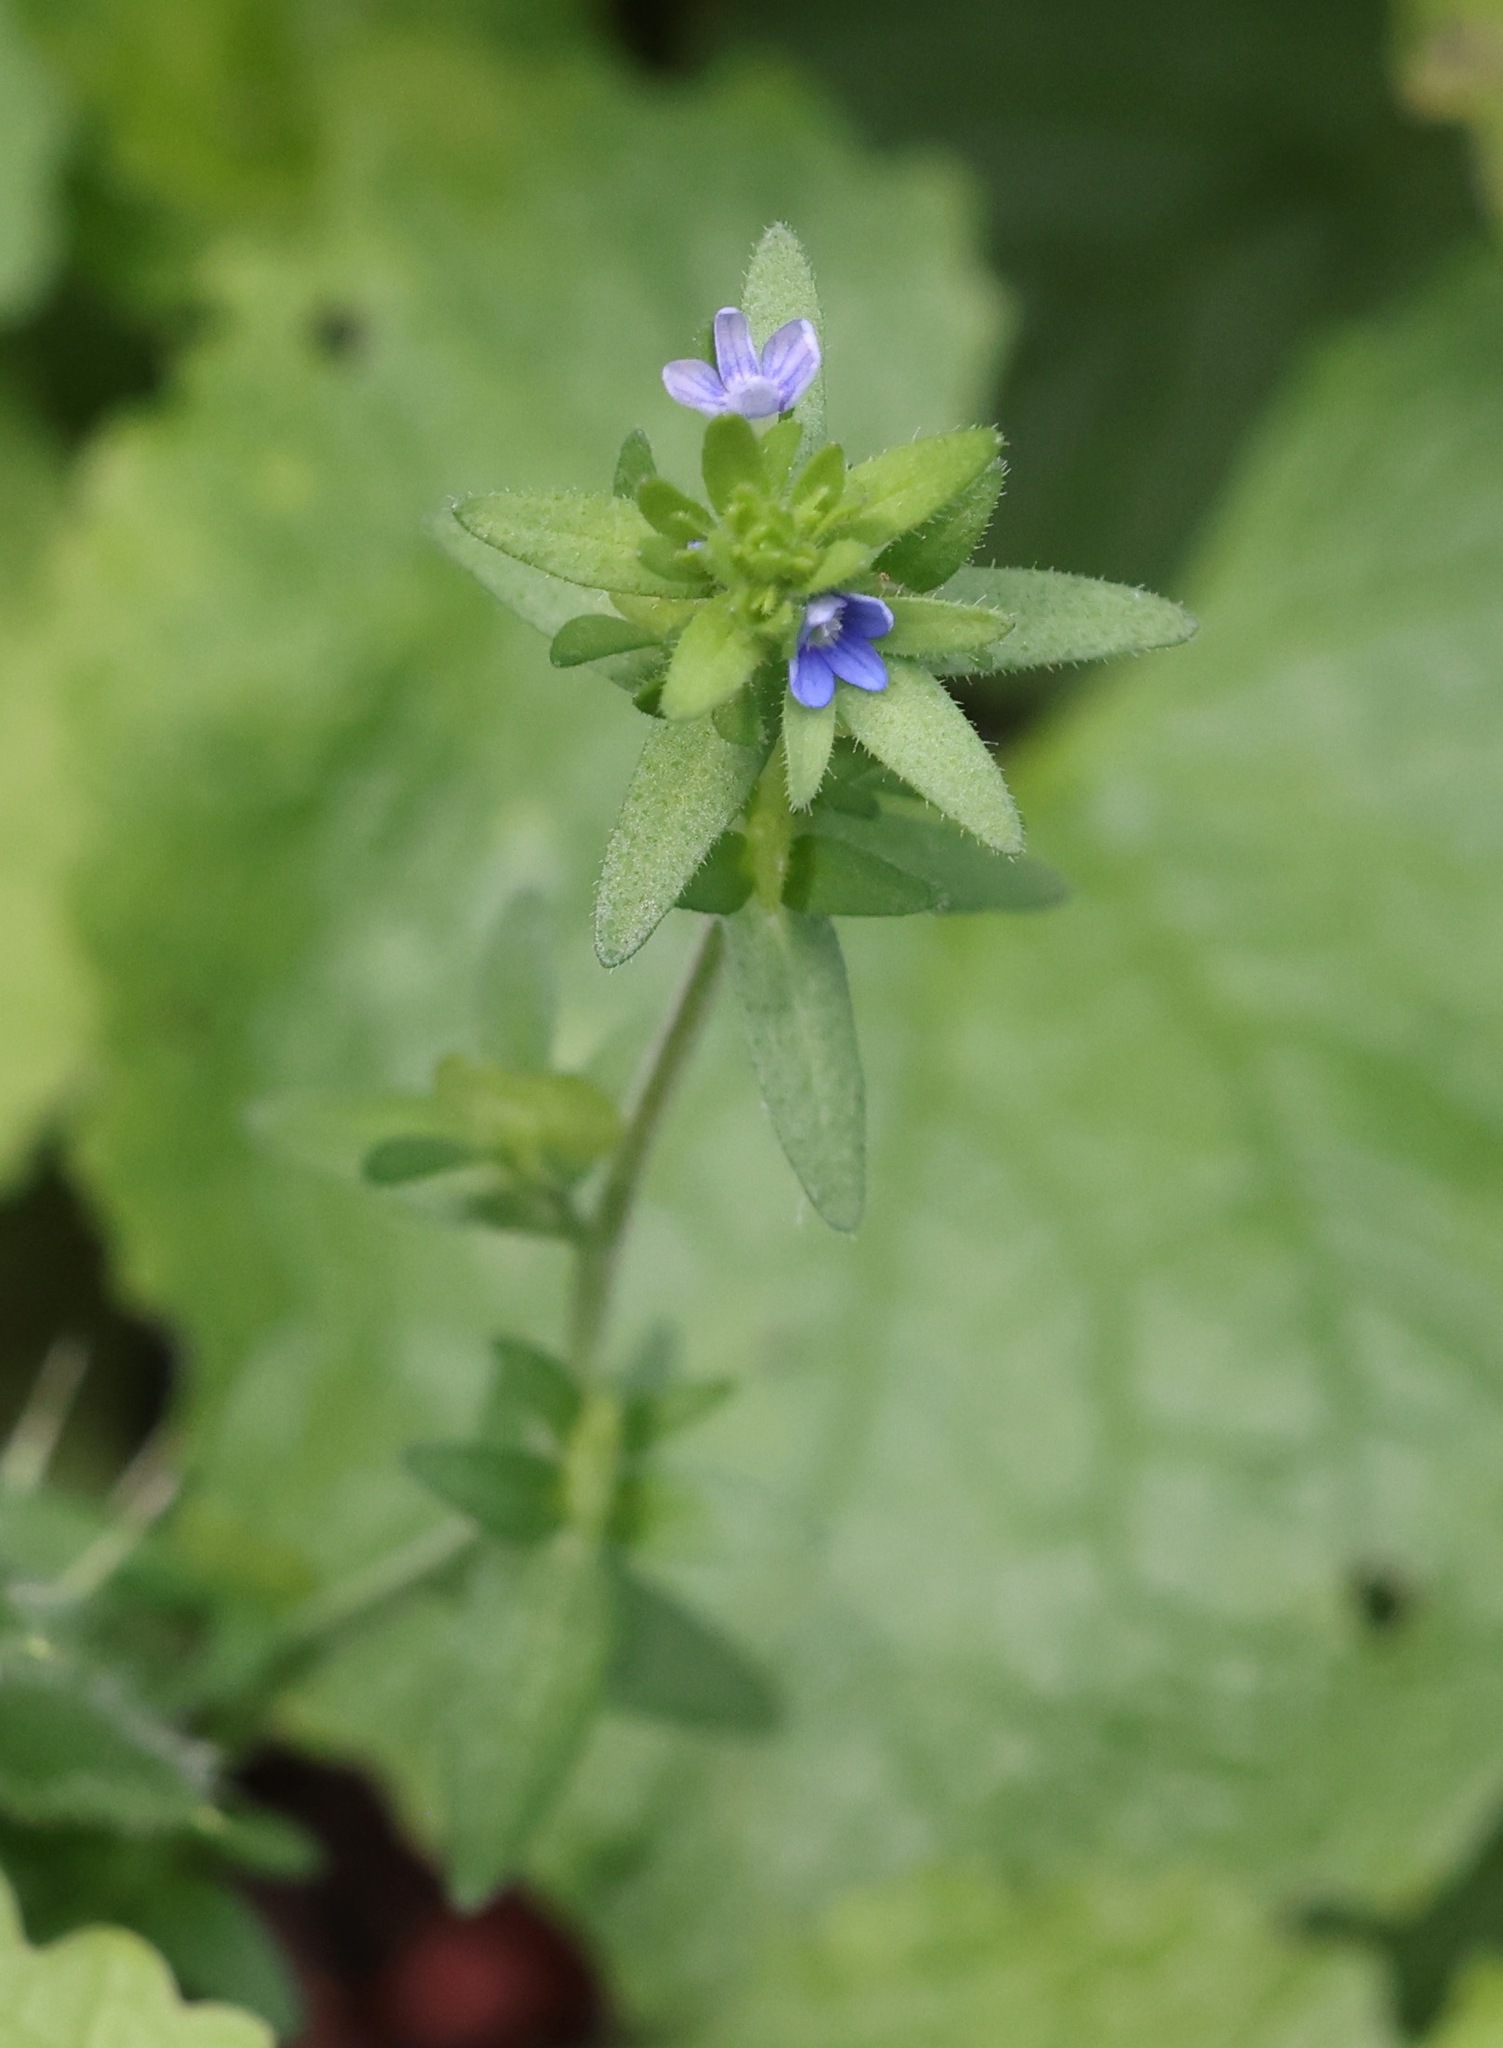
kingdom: Plantae
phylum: Tracheophyta
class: Magnoliopsida
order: Lamiales
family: Plantaginaceae
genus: Veronica
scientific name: Veronica arvensis
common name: Corn speedwell
